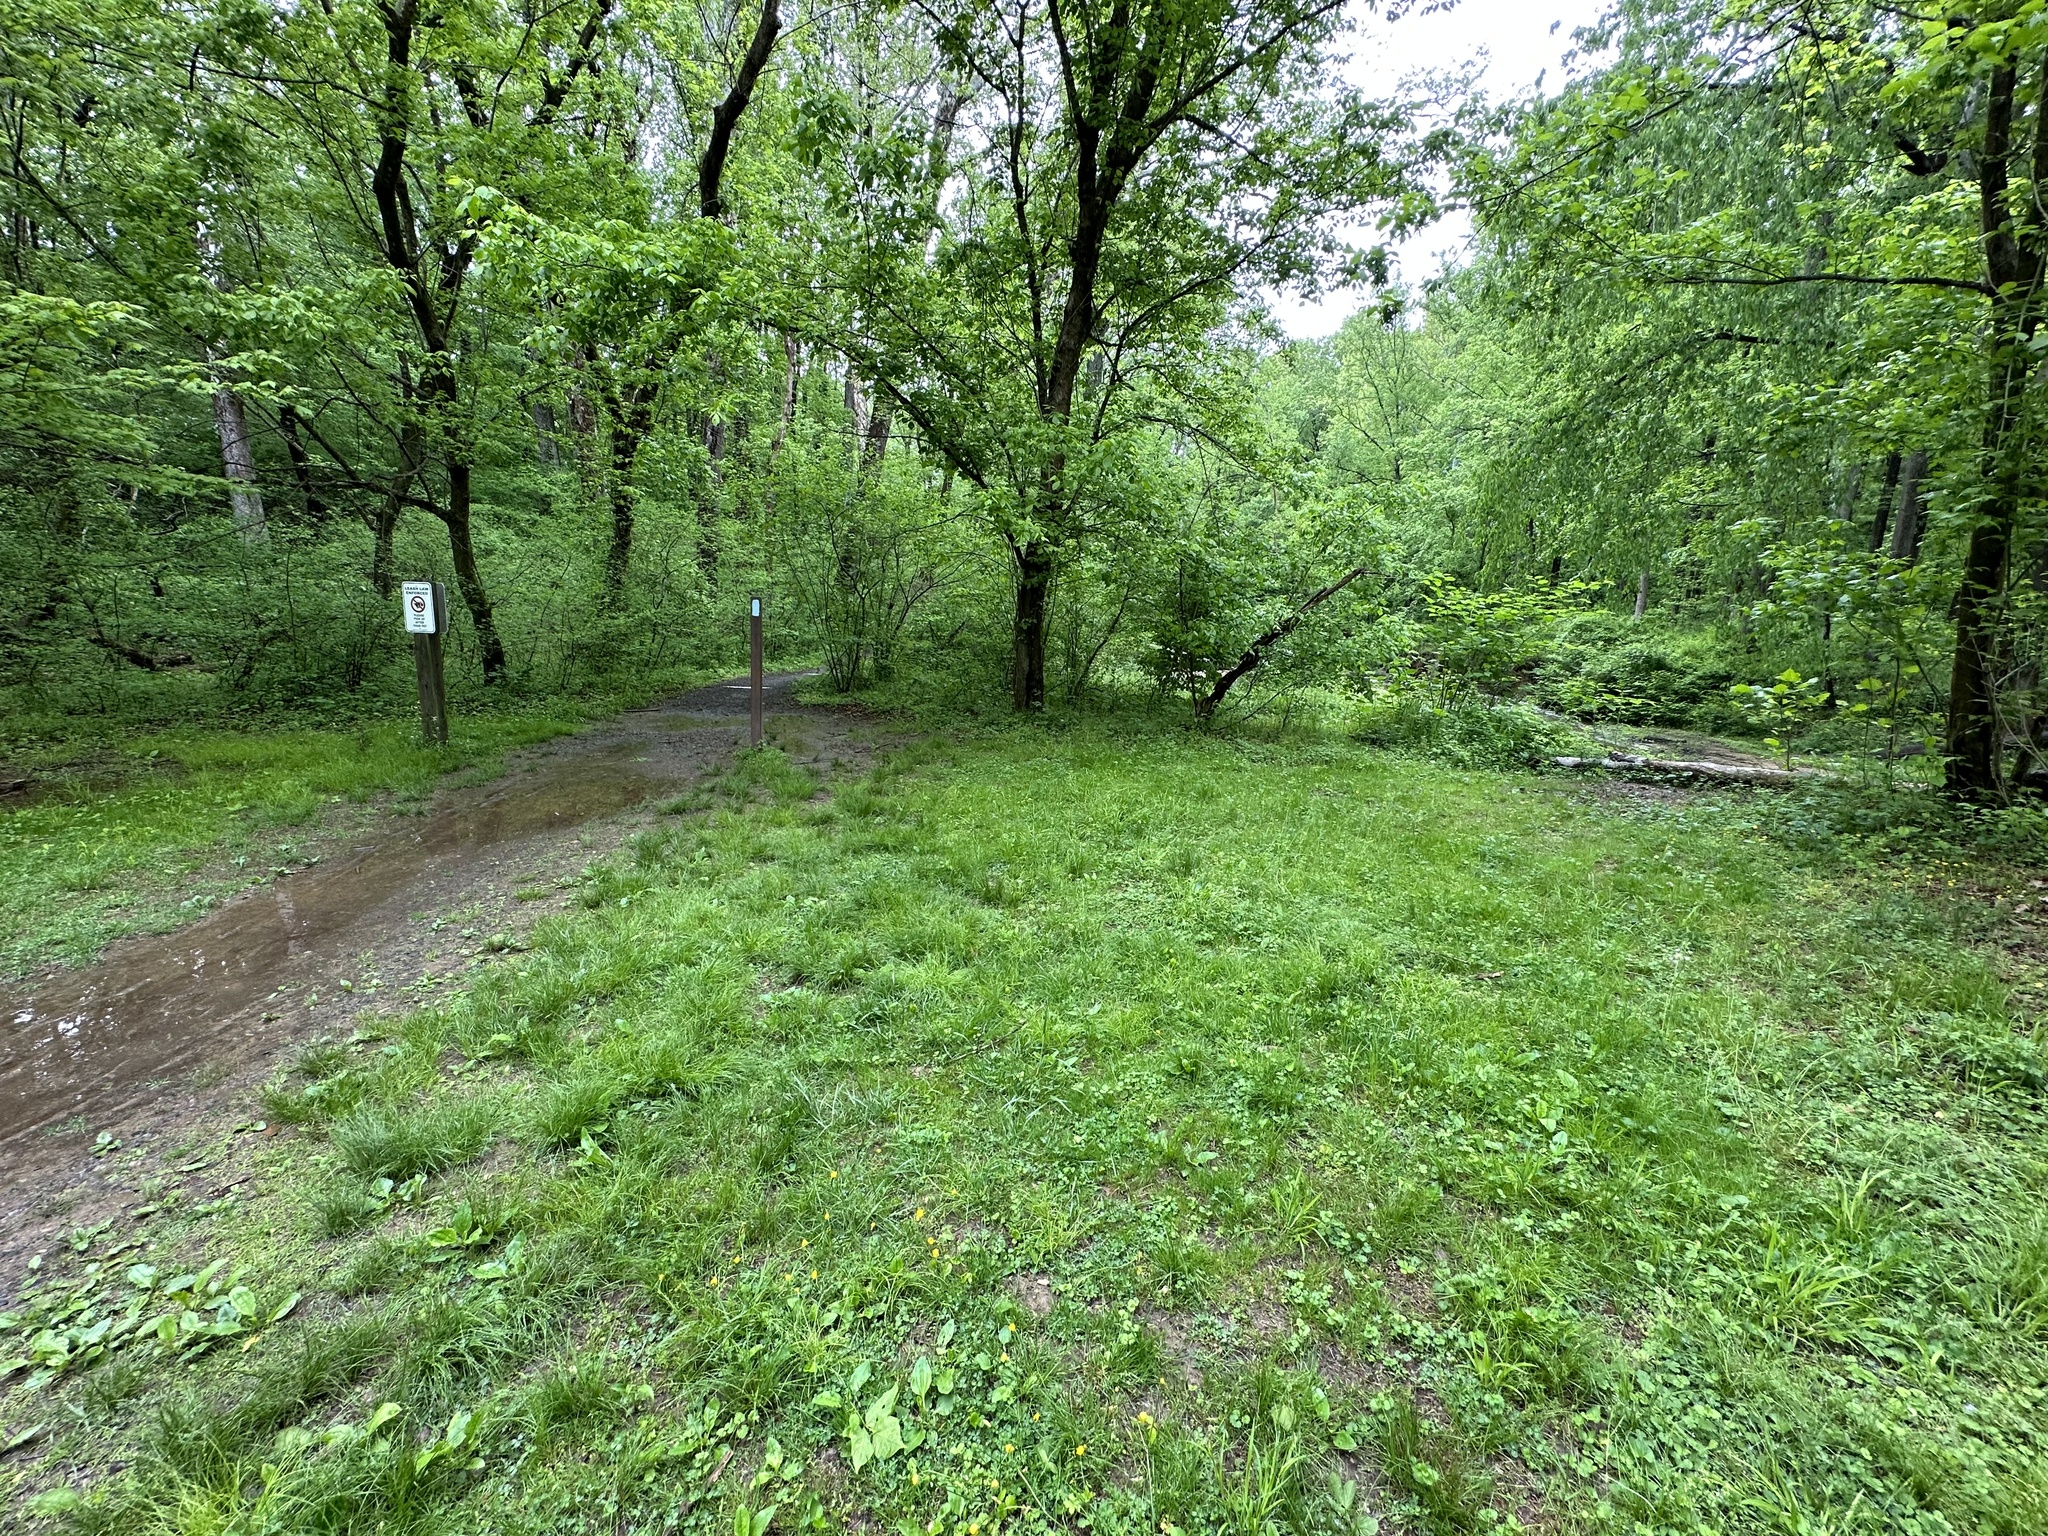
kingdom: Plantae
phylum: Tracheophyta
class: Magnoliopsida
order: Ranunculales
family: Papaveraceae
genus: Corydalis
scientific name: Corydalis incisa
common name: Incised fumewort
